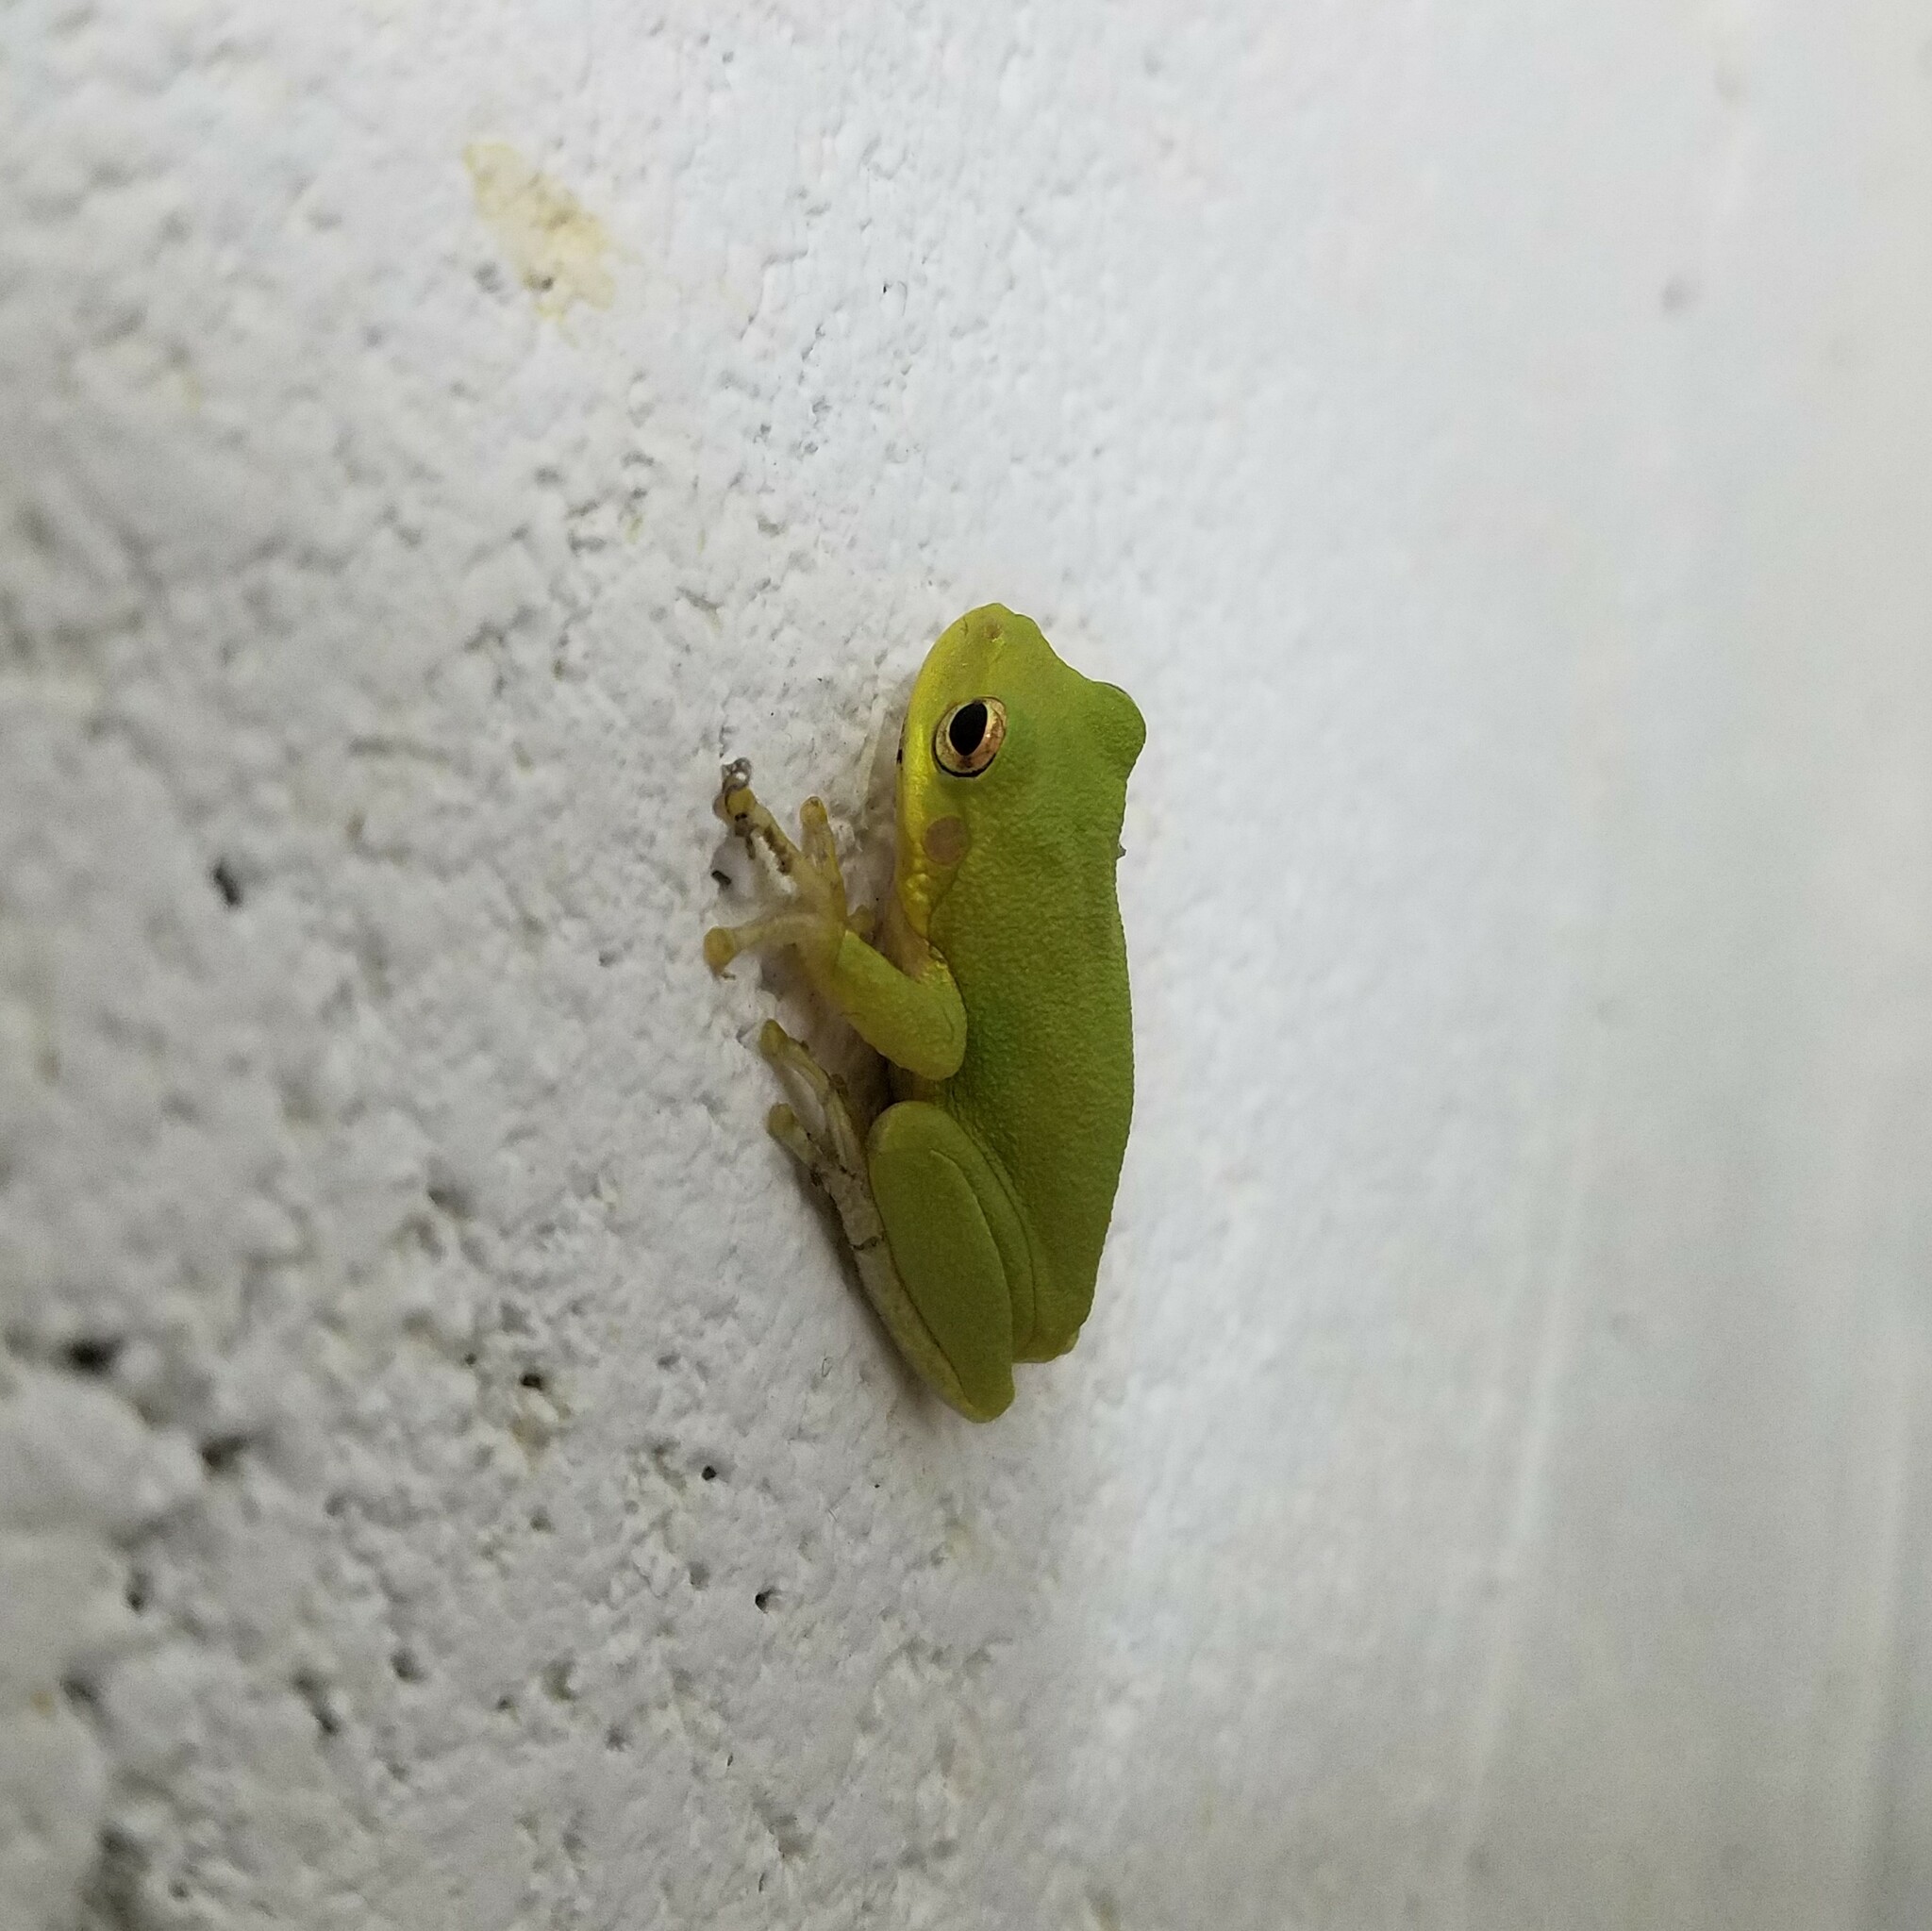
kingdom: Animalia
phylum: Chordata
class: Amphibia
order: Anura
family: Hylidae
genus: Dryophytes
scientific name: Dryophytes squirellus
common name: Squirrel treefrog
